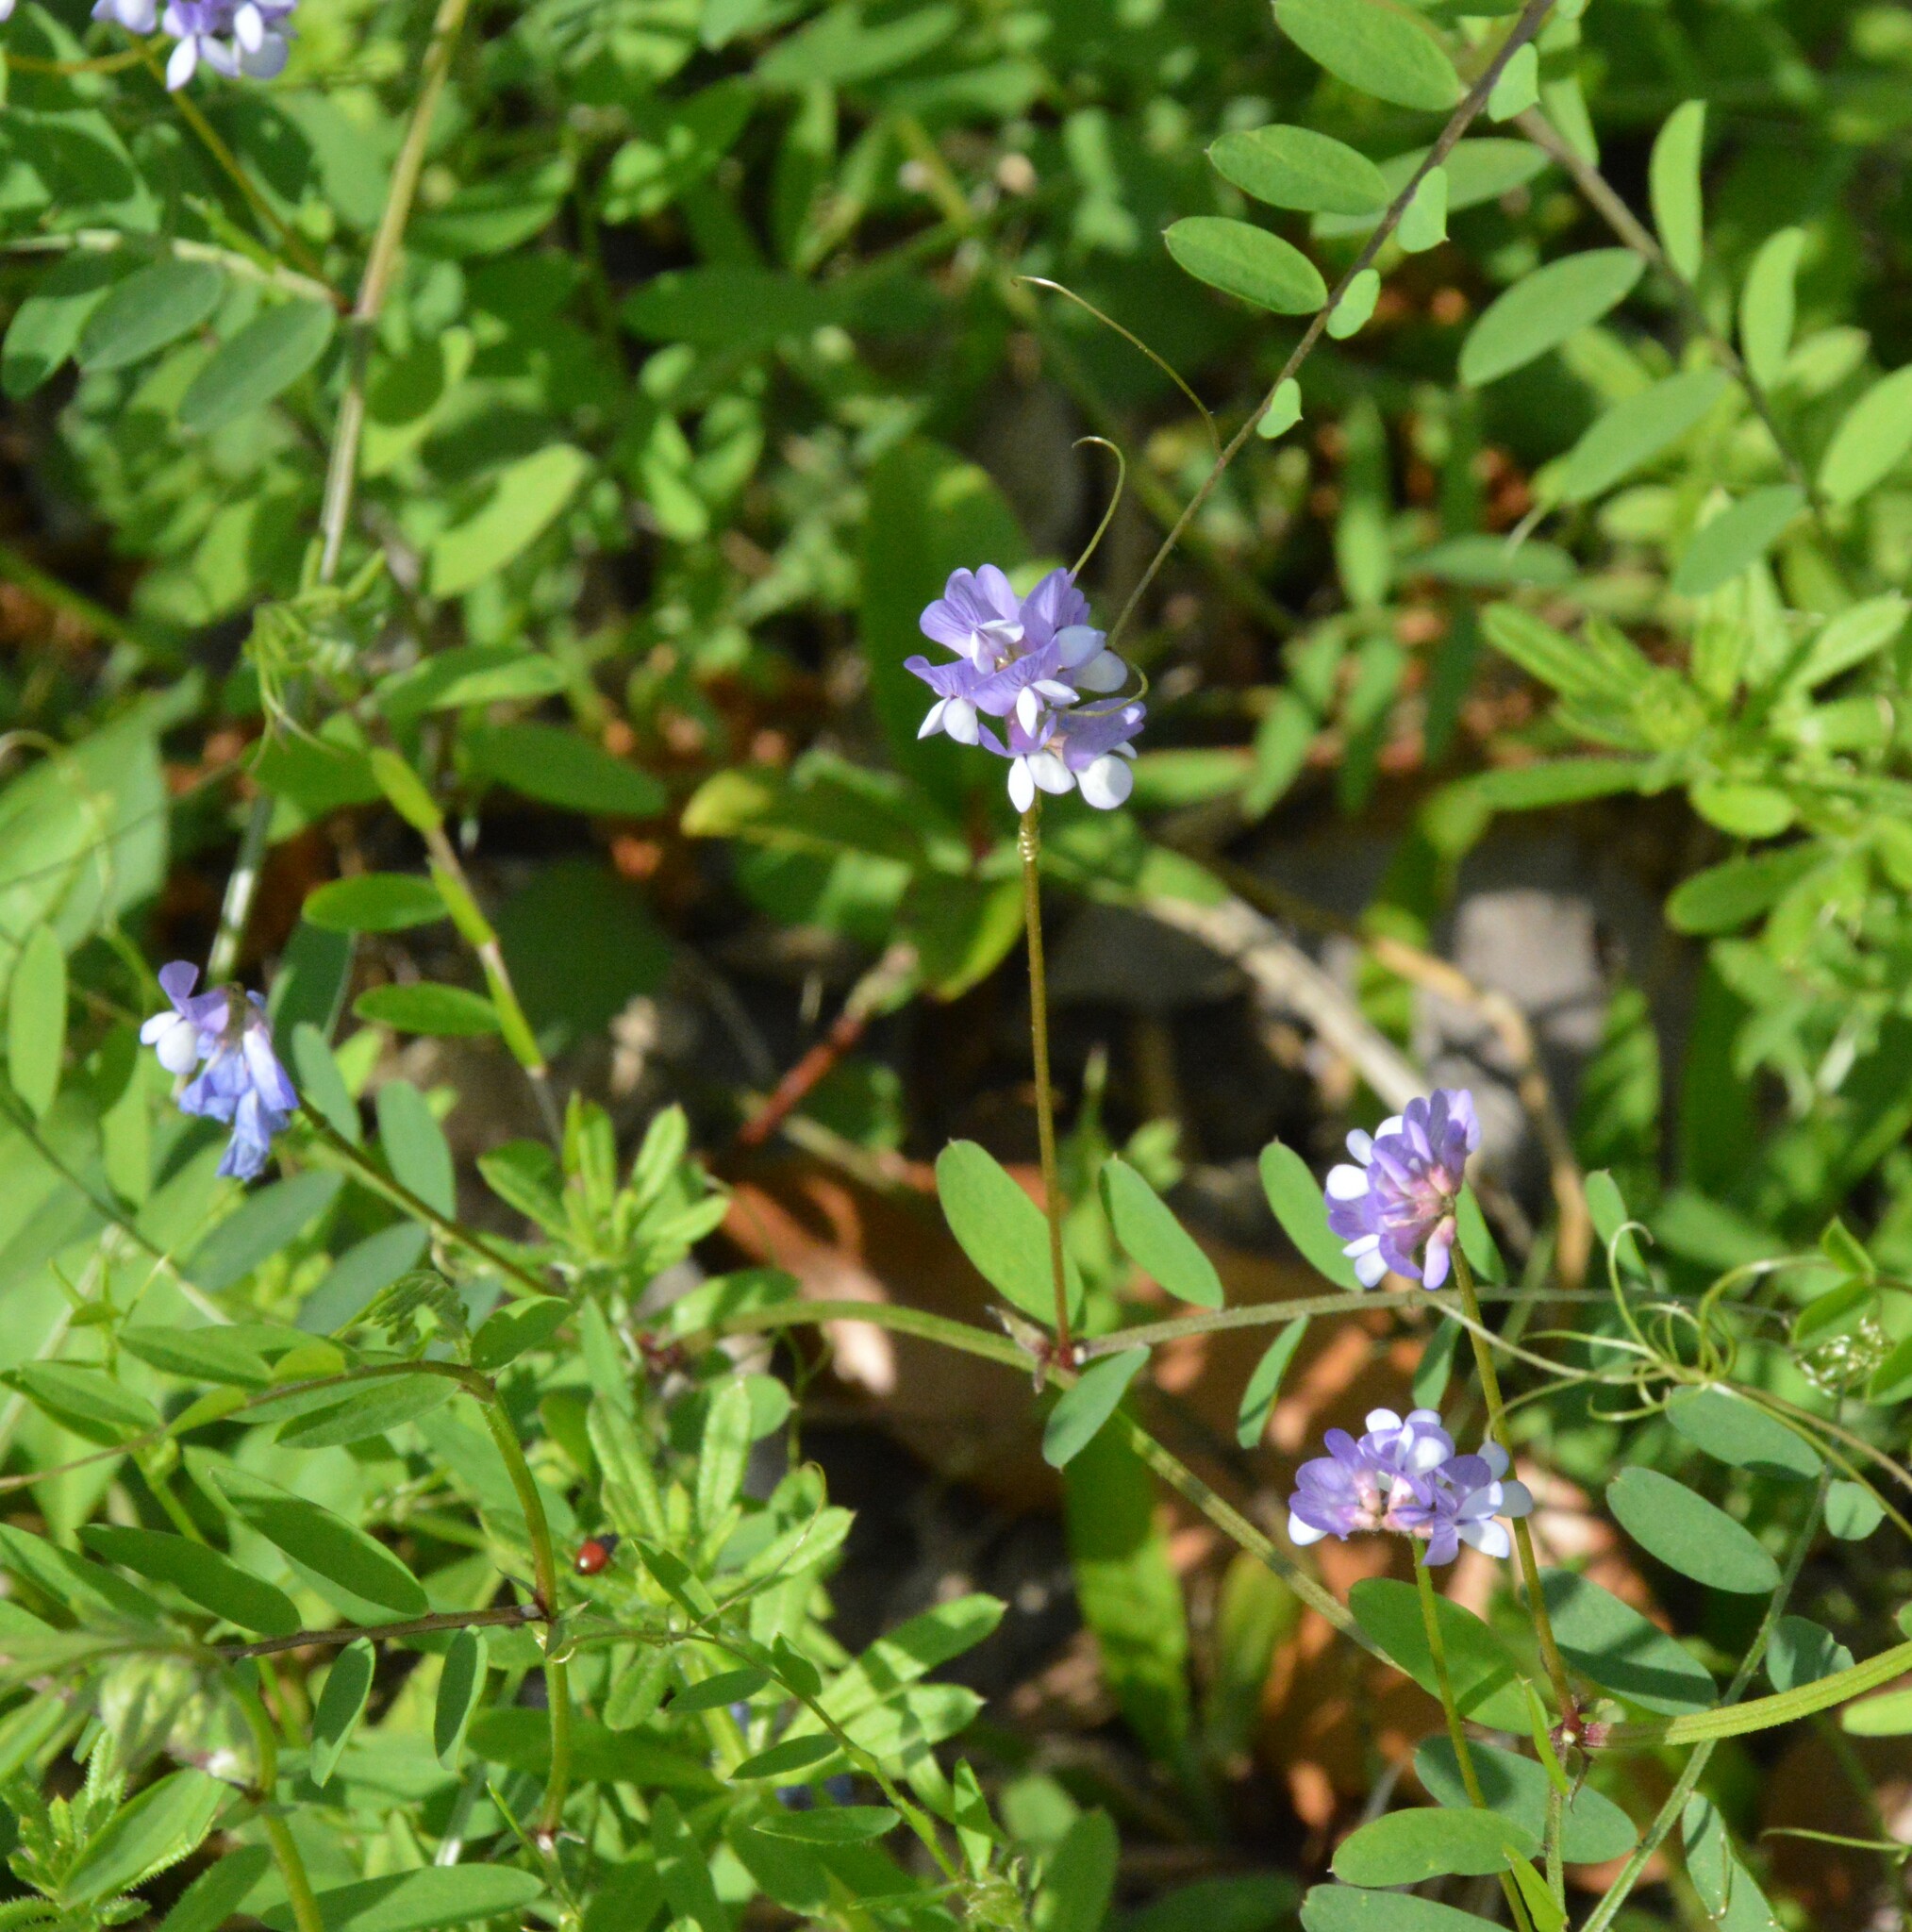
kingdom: Plantae
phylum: Tracheophyta
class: Magnoliopsida
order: Fabales
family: Fabaceae
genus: Vicia
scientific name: Vicia ludoviciana
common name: Louisiana vetch
